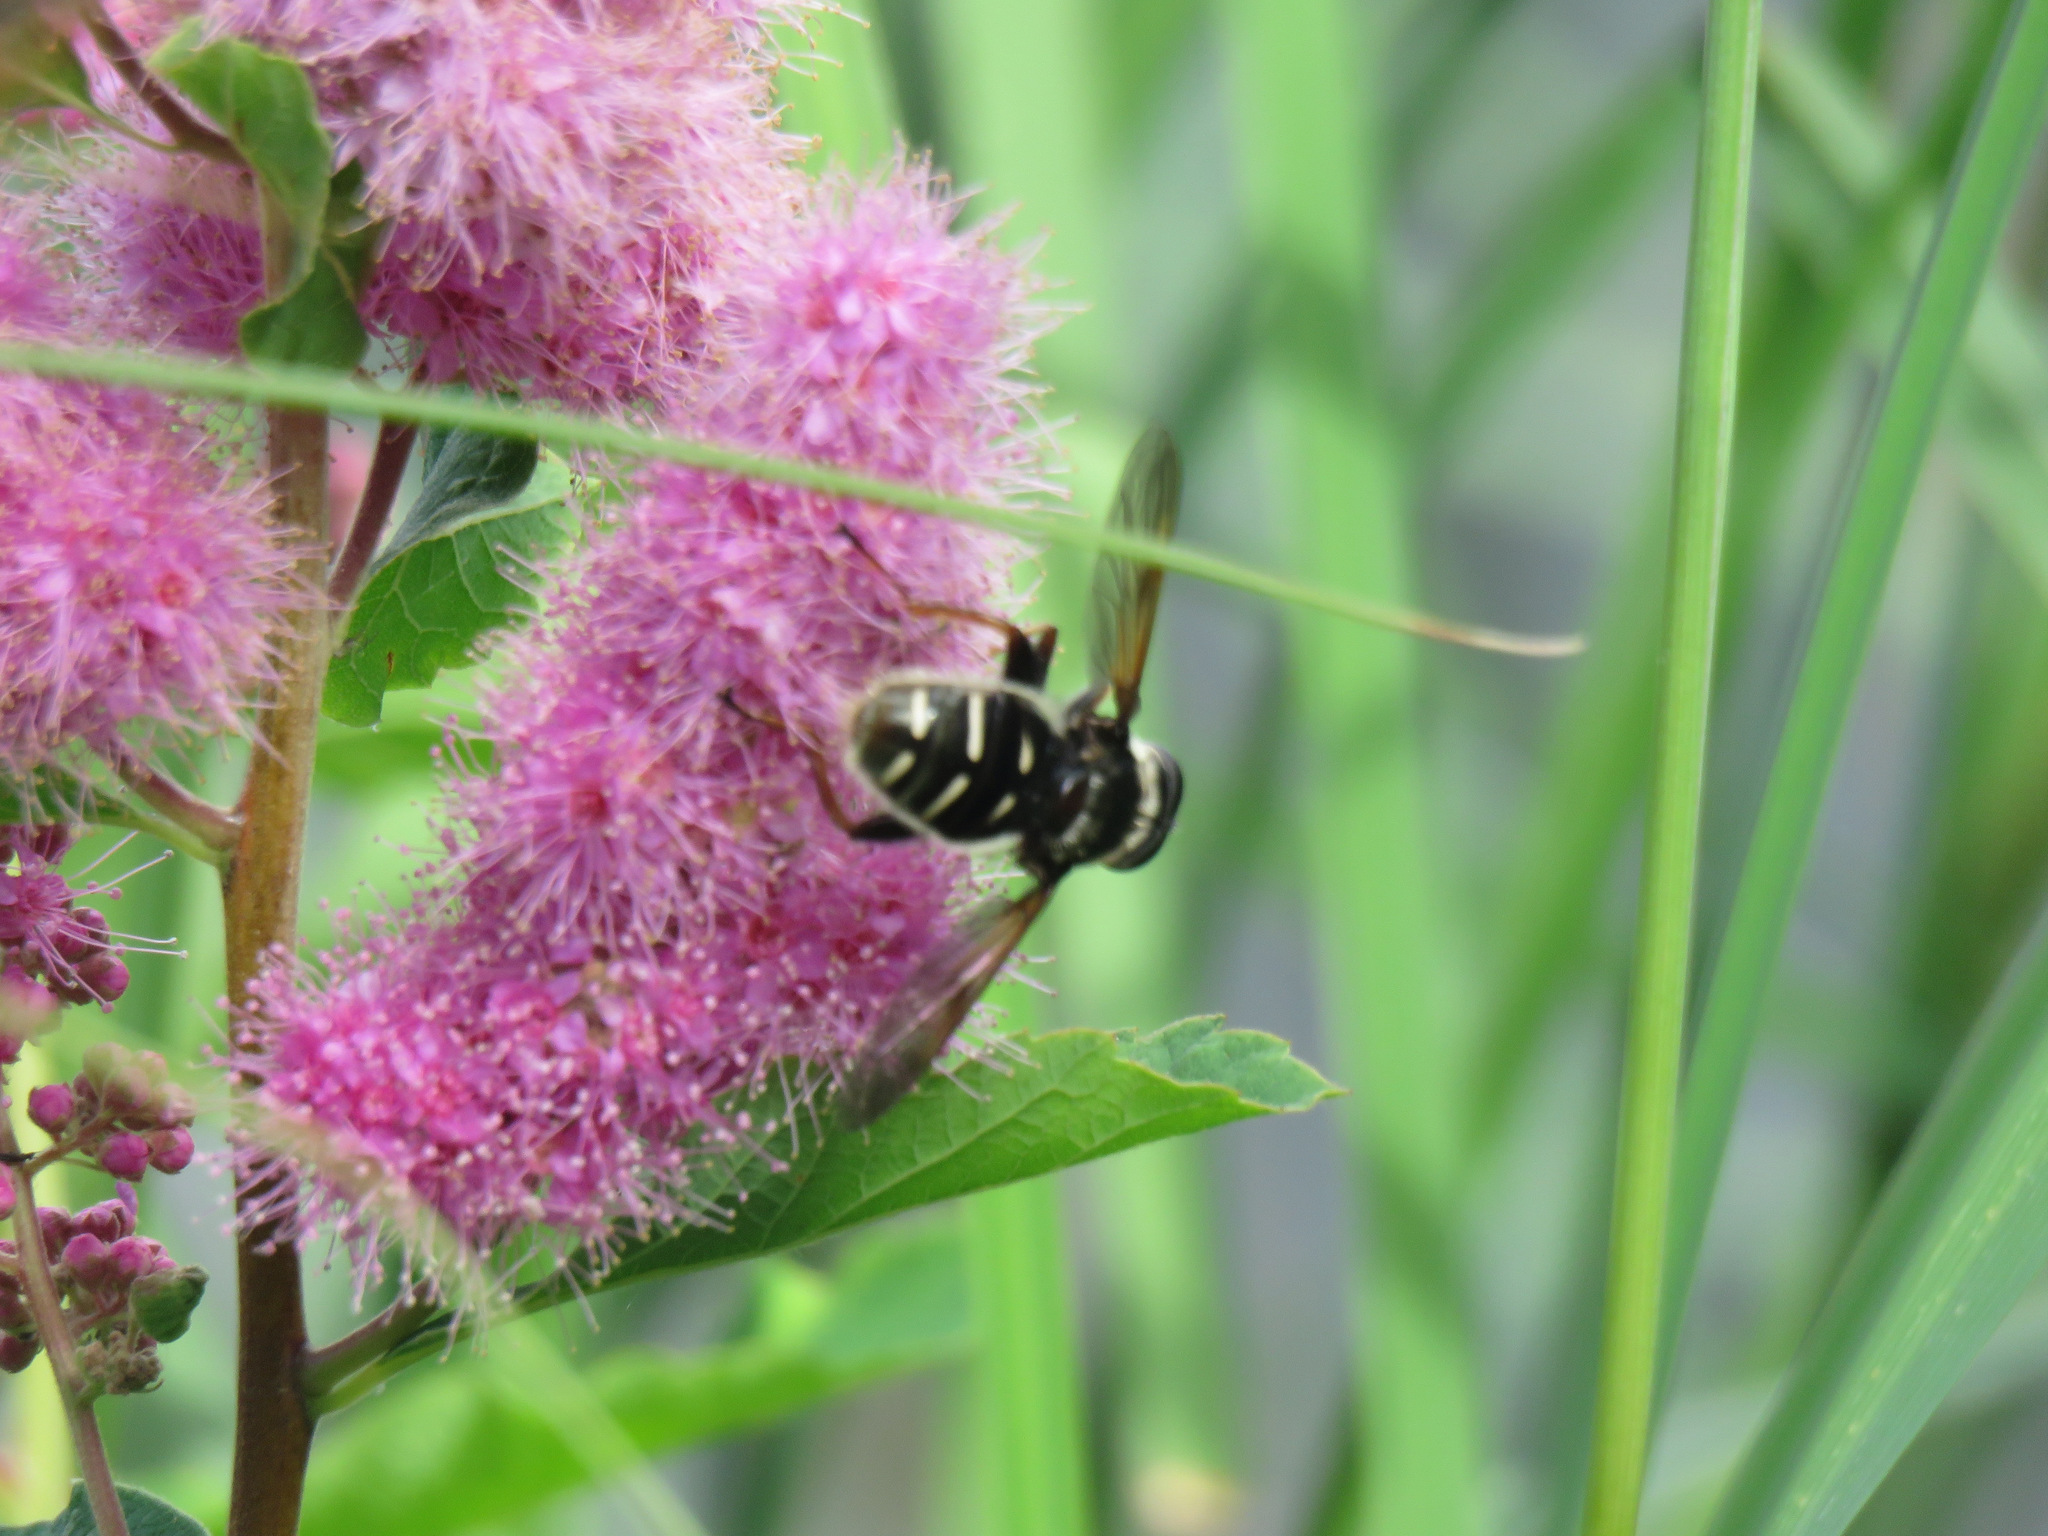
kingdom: Animalia
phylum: Arthropoda
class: Insecta
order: Diptera
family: Syrphidae
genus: Sericomyia
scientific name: Sericomyia militaris
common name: Narrow-banded pond fly
